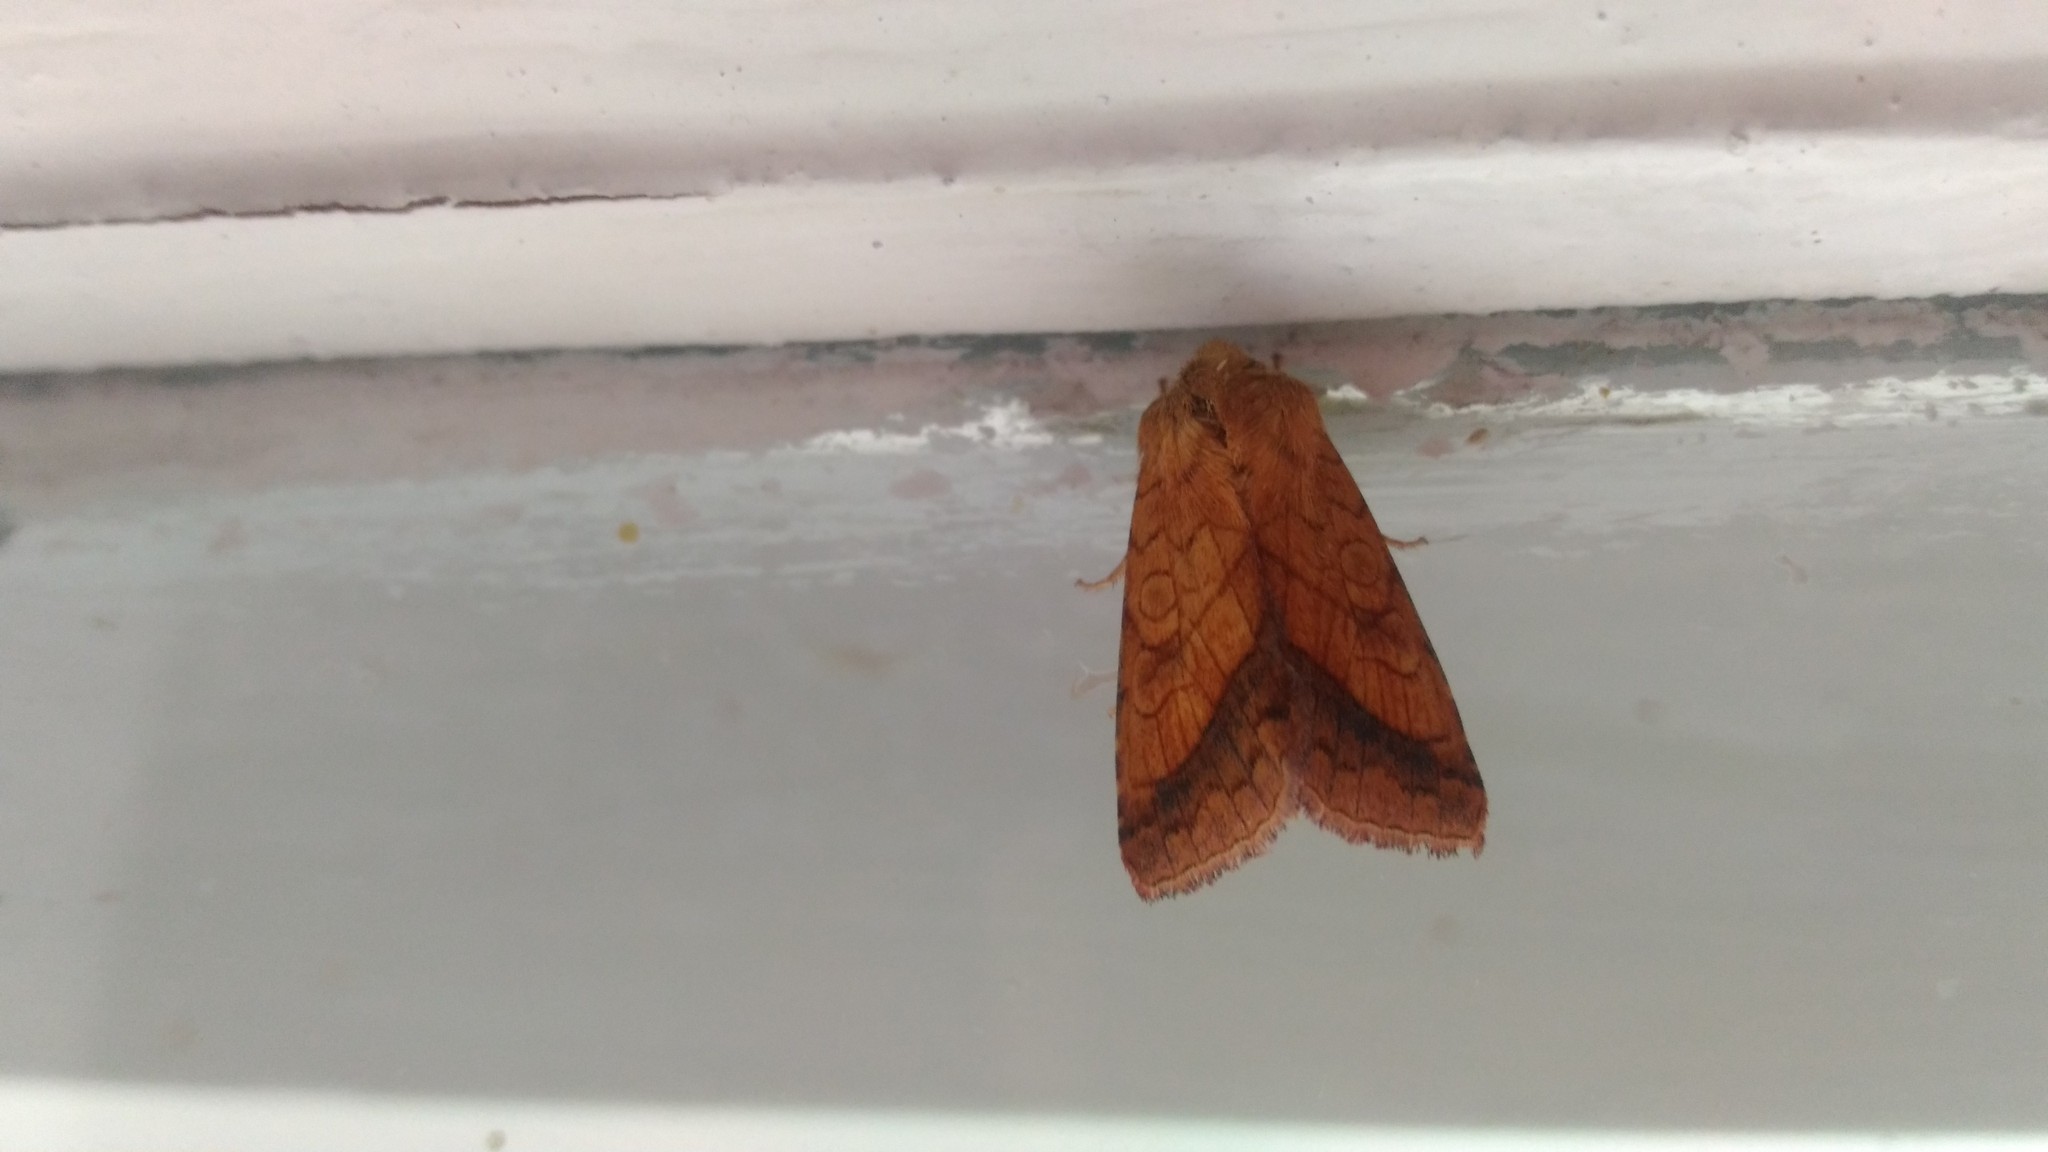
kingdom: Animalia
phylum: Arthropoda
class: Insecta
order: Lepidoptera
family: Noctuidae
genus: Pyrrhia
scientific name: Pyrrhia umbra
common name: Bordered sallow
